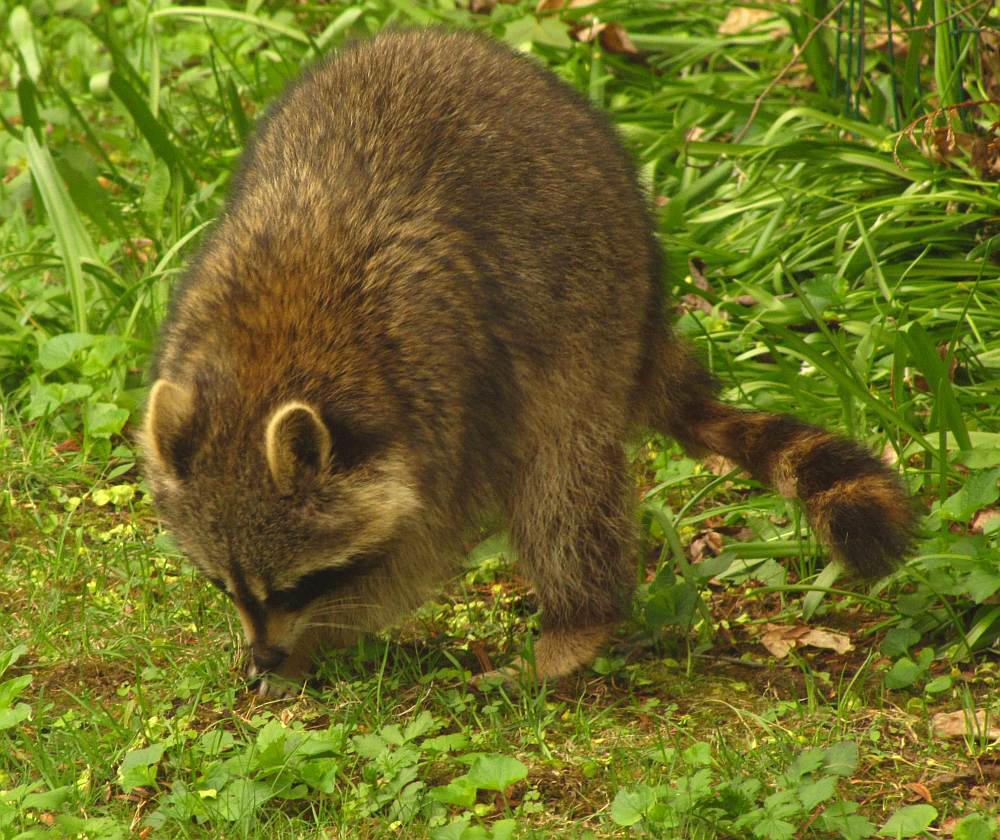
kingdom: Animalia
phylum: Chordata
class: Mammalia
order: Carnivora
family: Procyonidae
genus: Procyon
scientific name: Procyon lotor
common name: Raccoon
